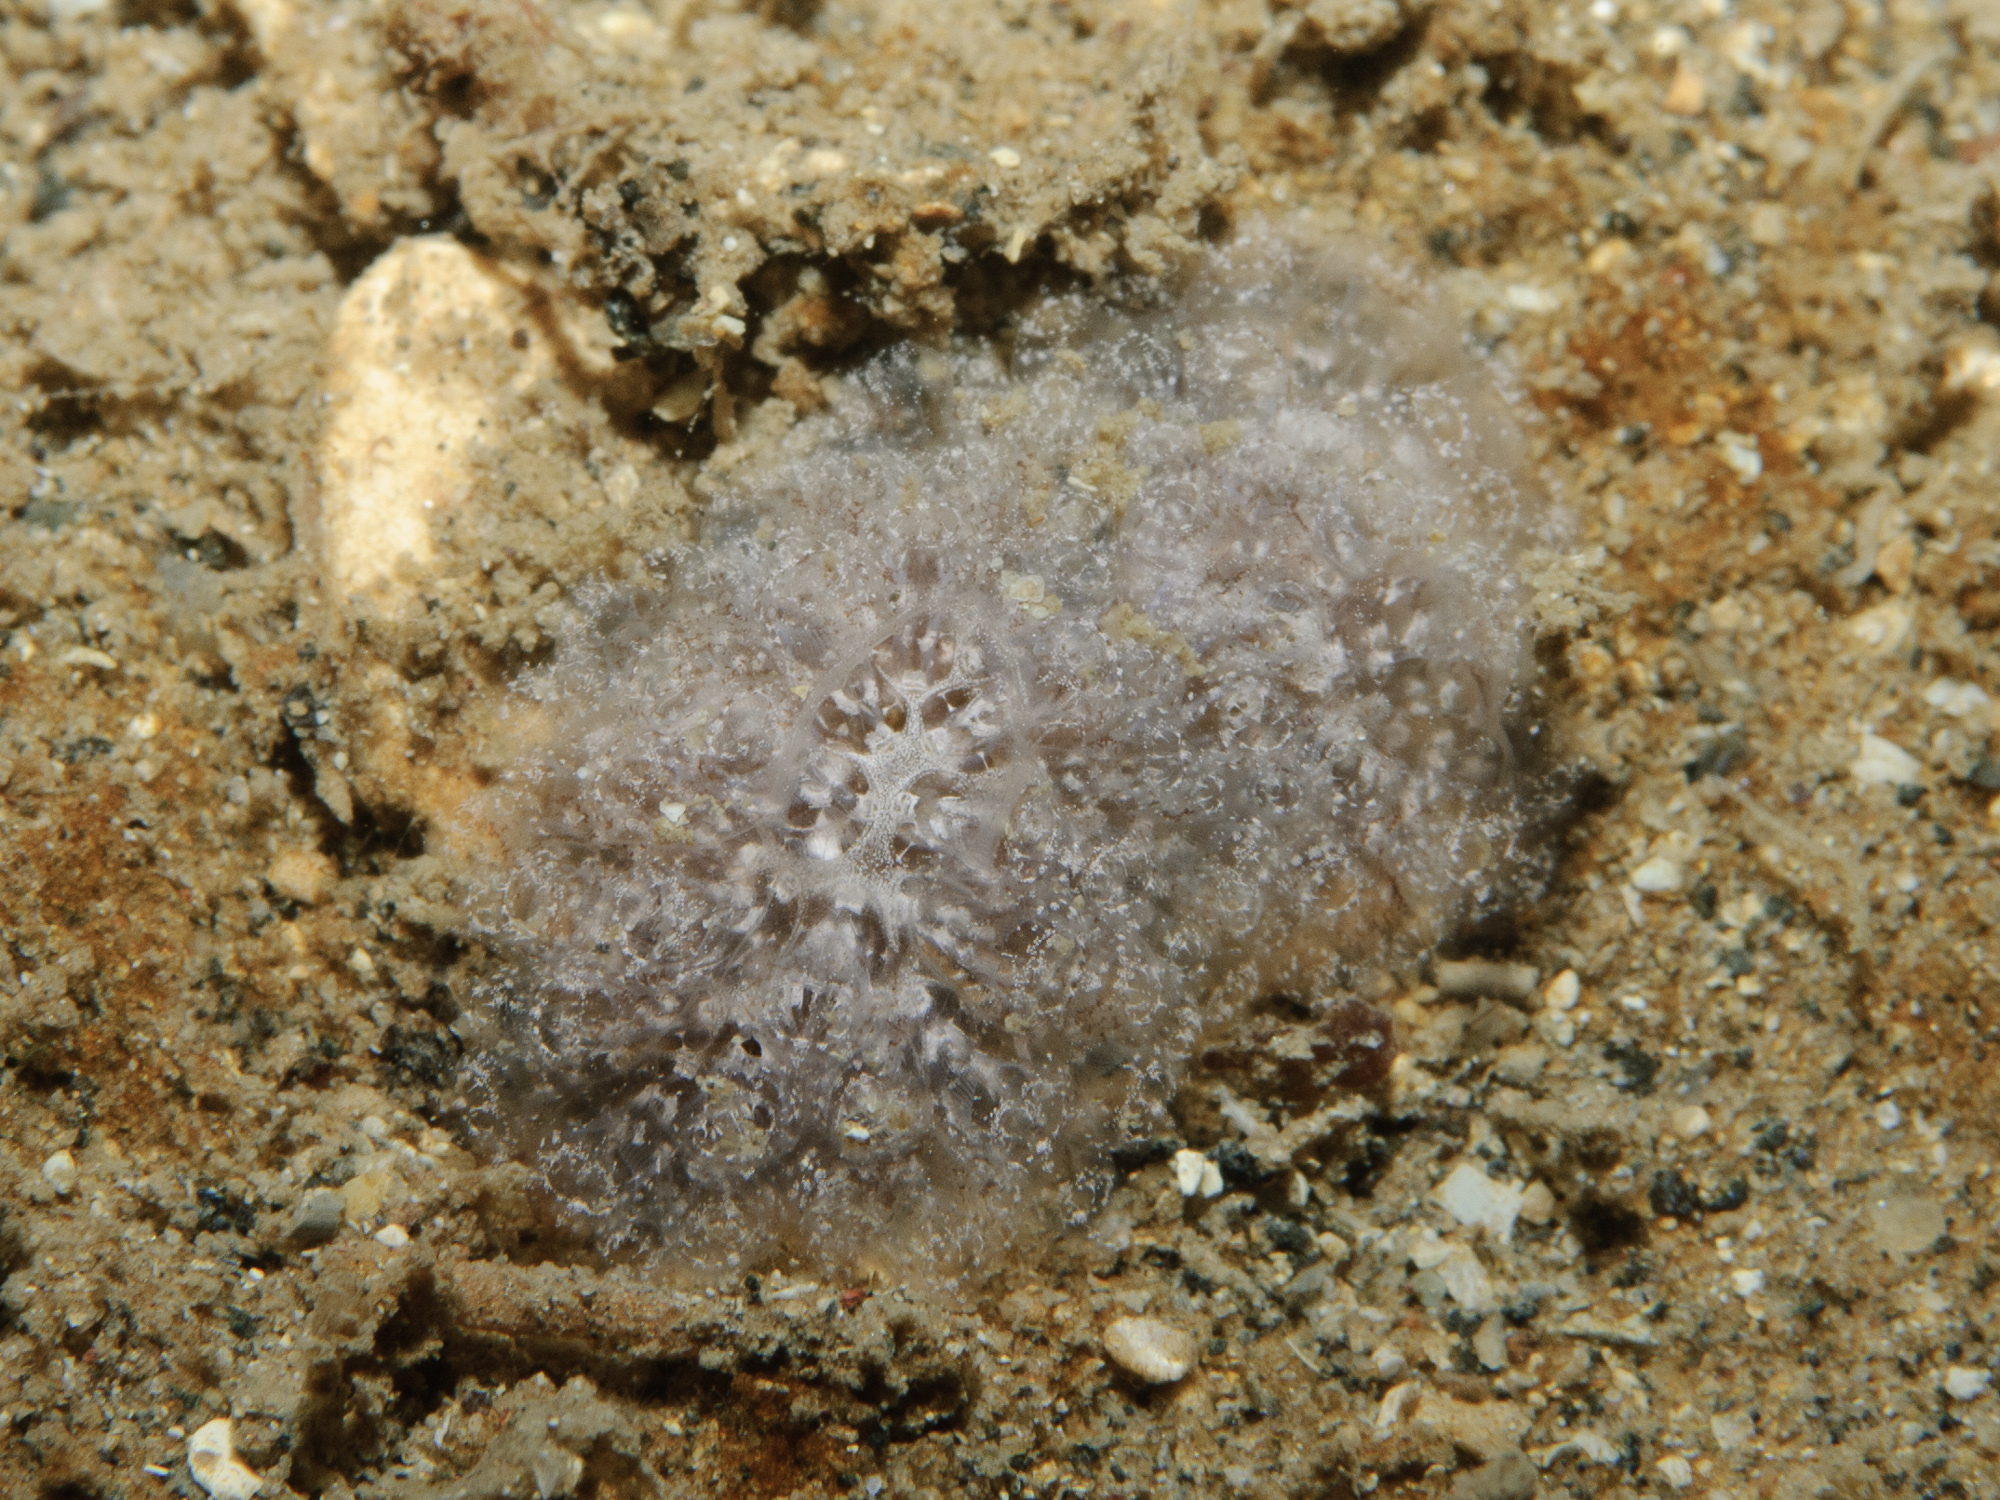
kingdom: Animalia
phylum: Chordata
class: Ascidiacea
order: Aplousobranchia
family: Holozoidae
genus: Distaplia
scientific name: Distaplia rosea
